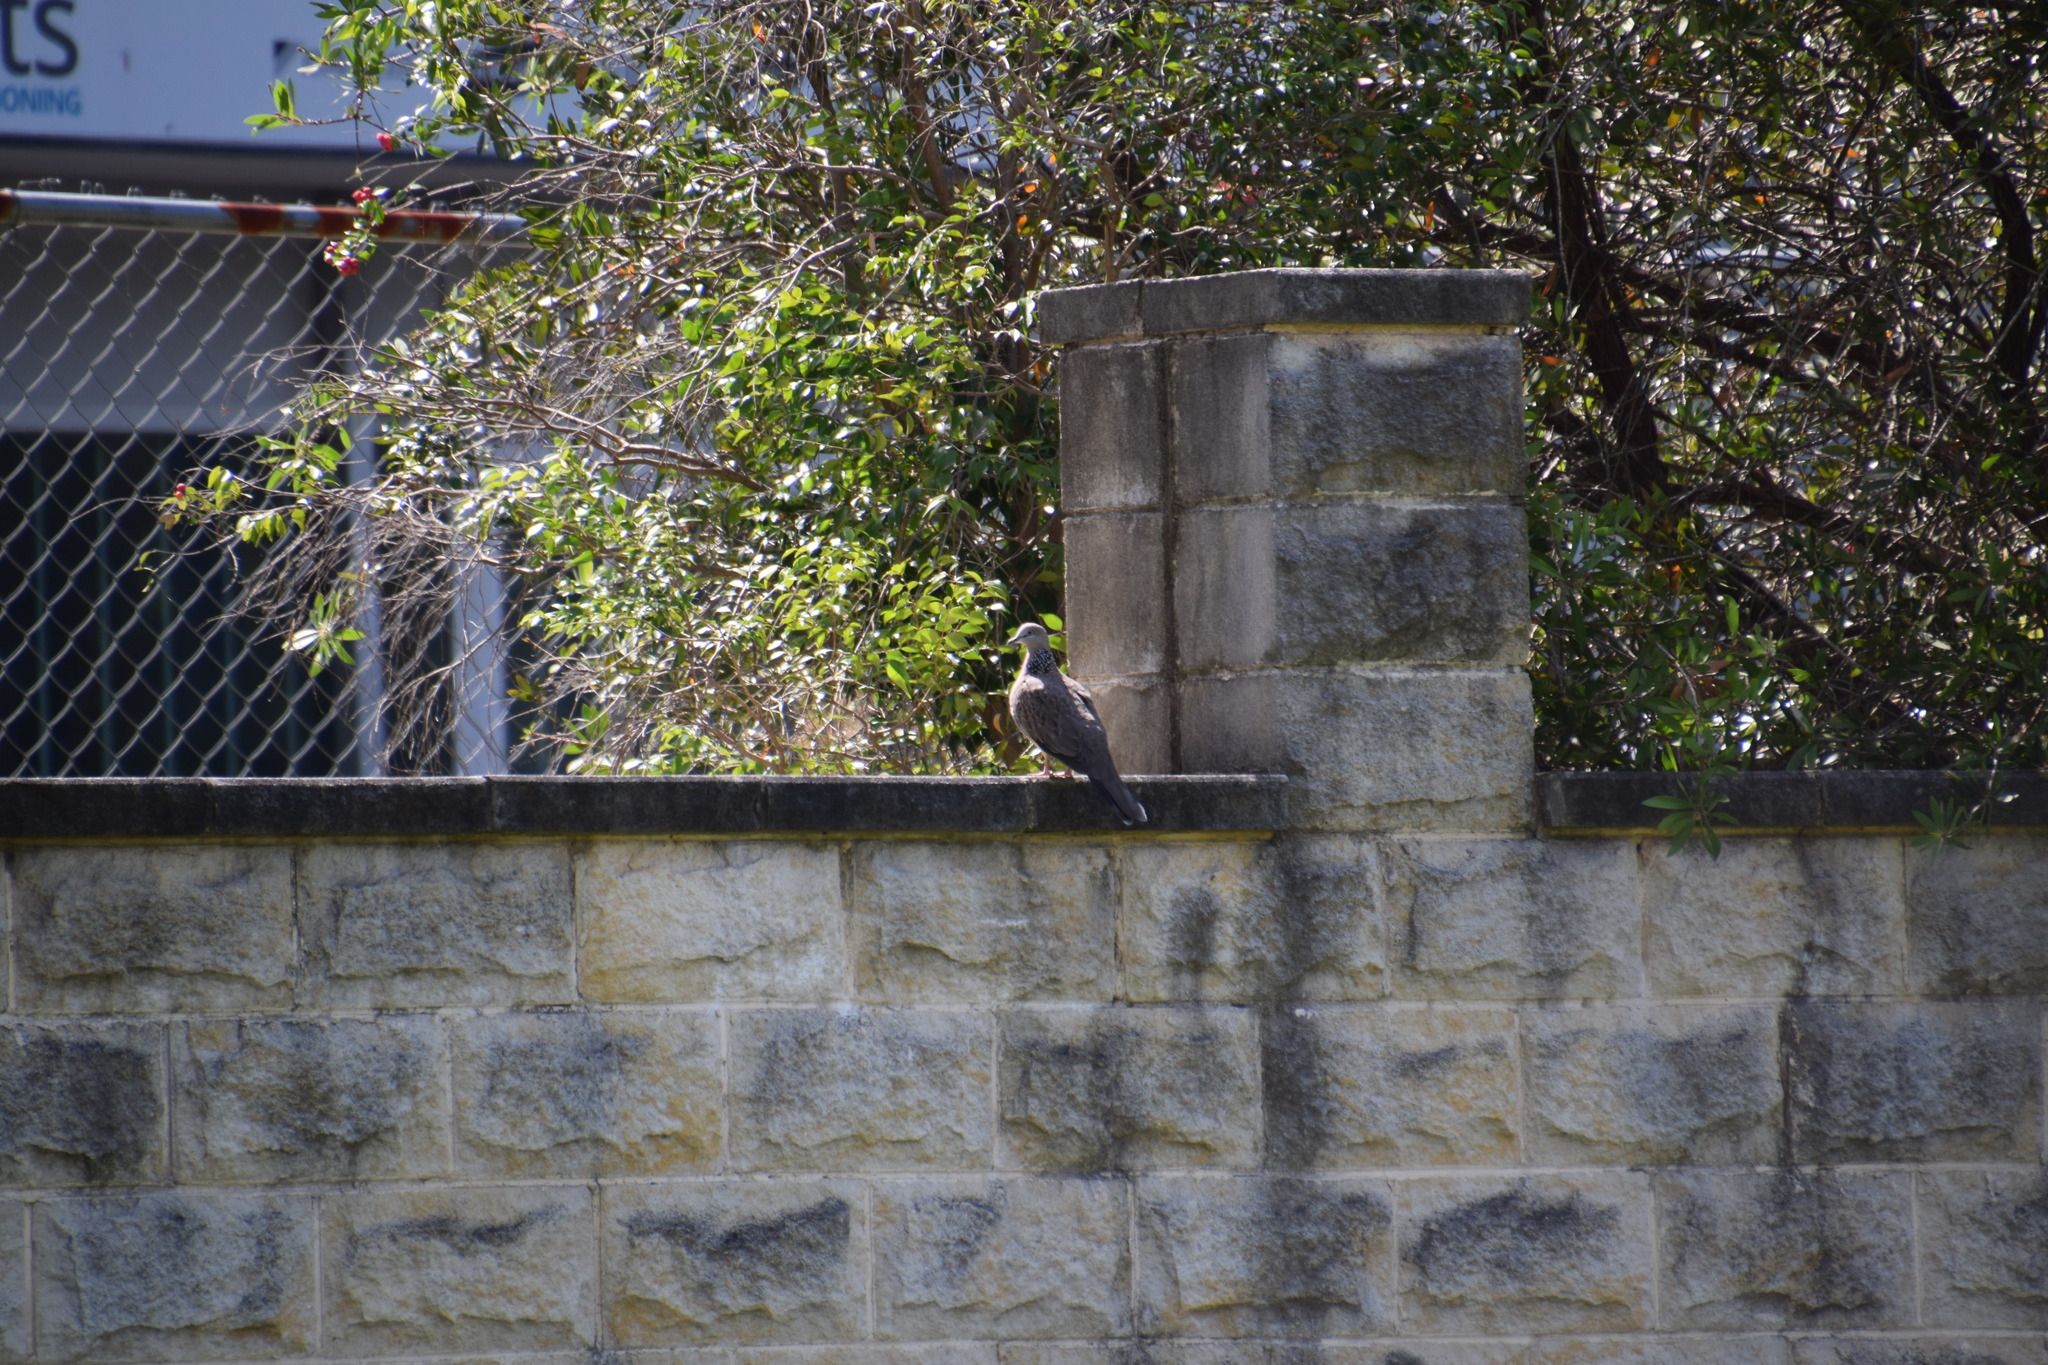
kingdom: Animalia
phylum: Chordata
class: Aves
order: Columbiformes
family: Columbidae
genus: Spilopelia
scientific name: Spilopelia chinensis
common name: Spotted dove
